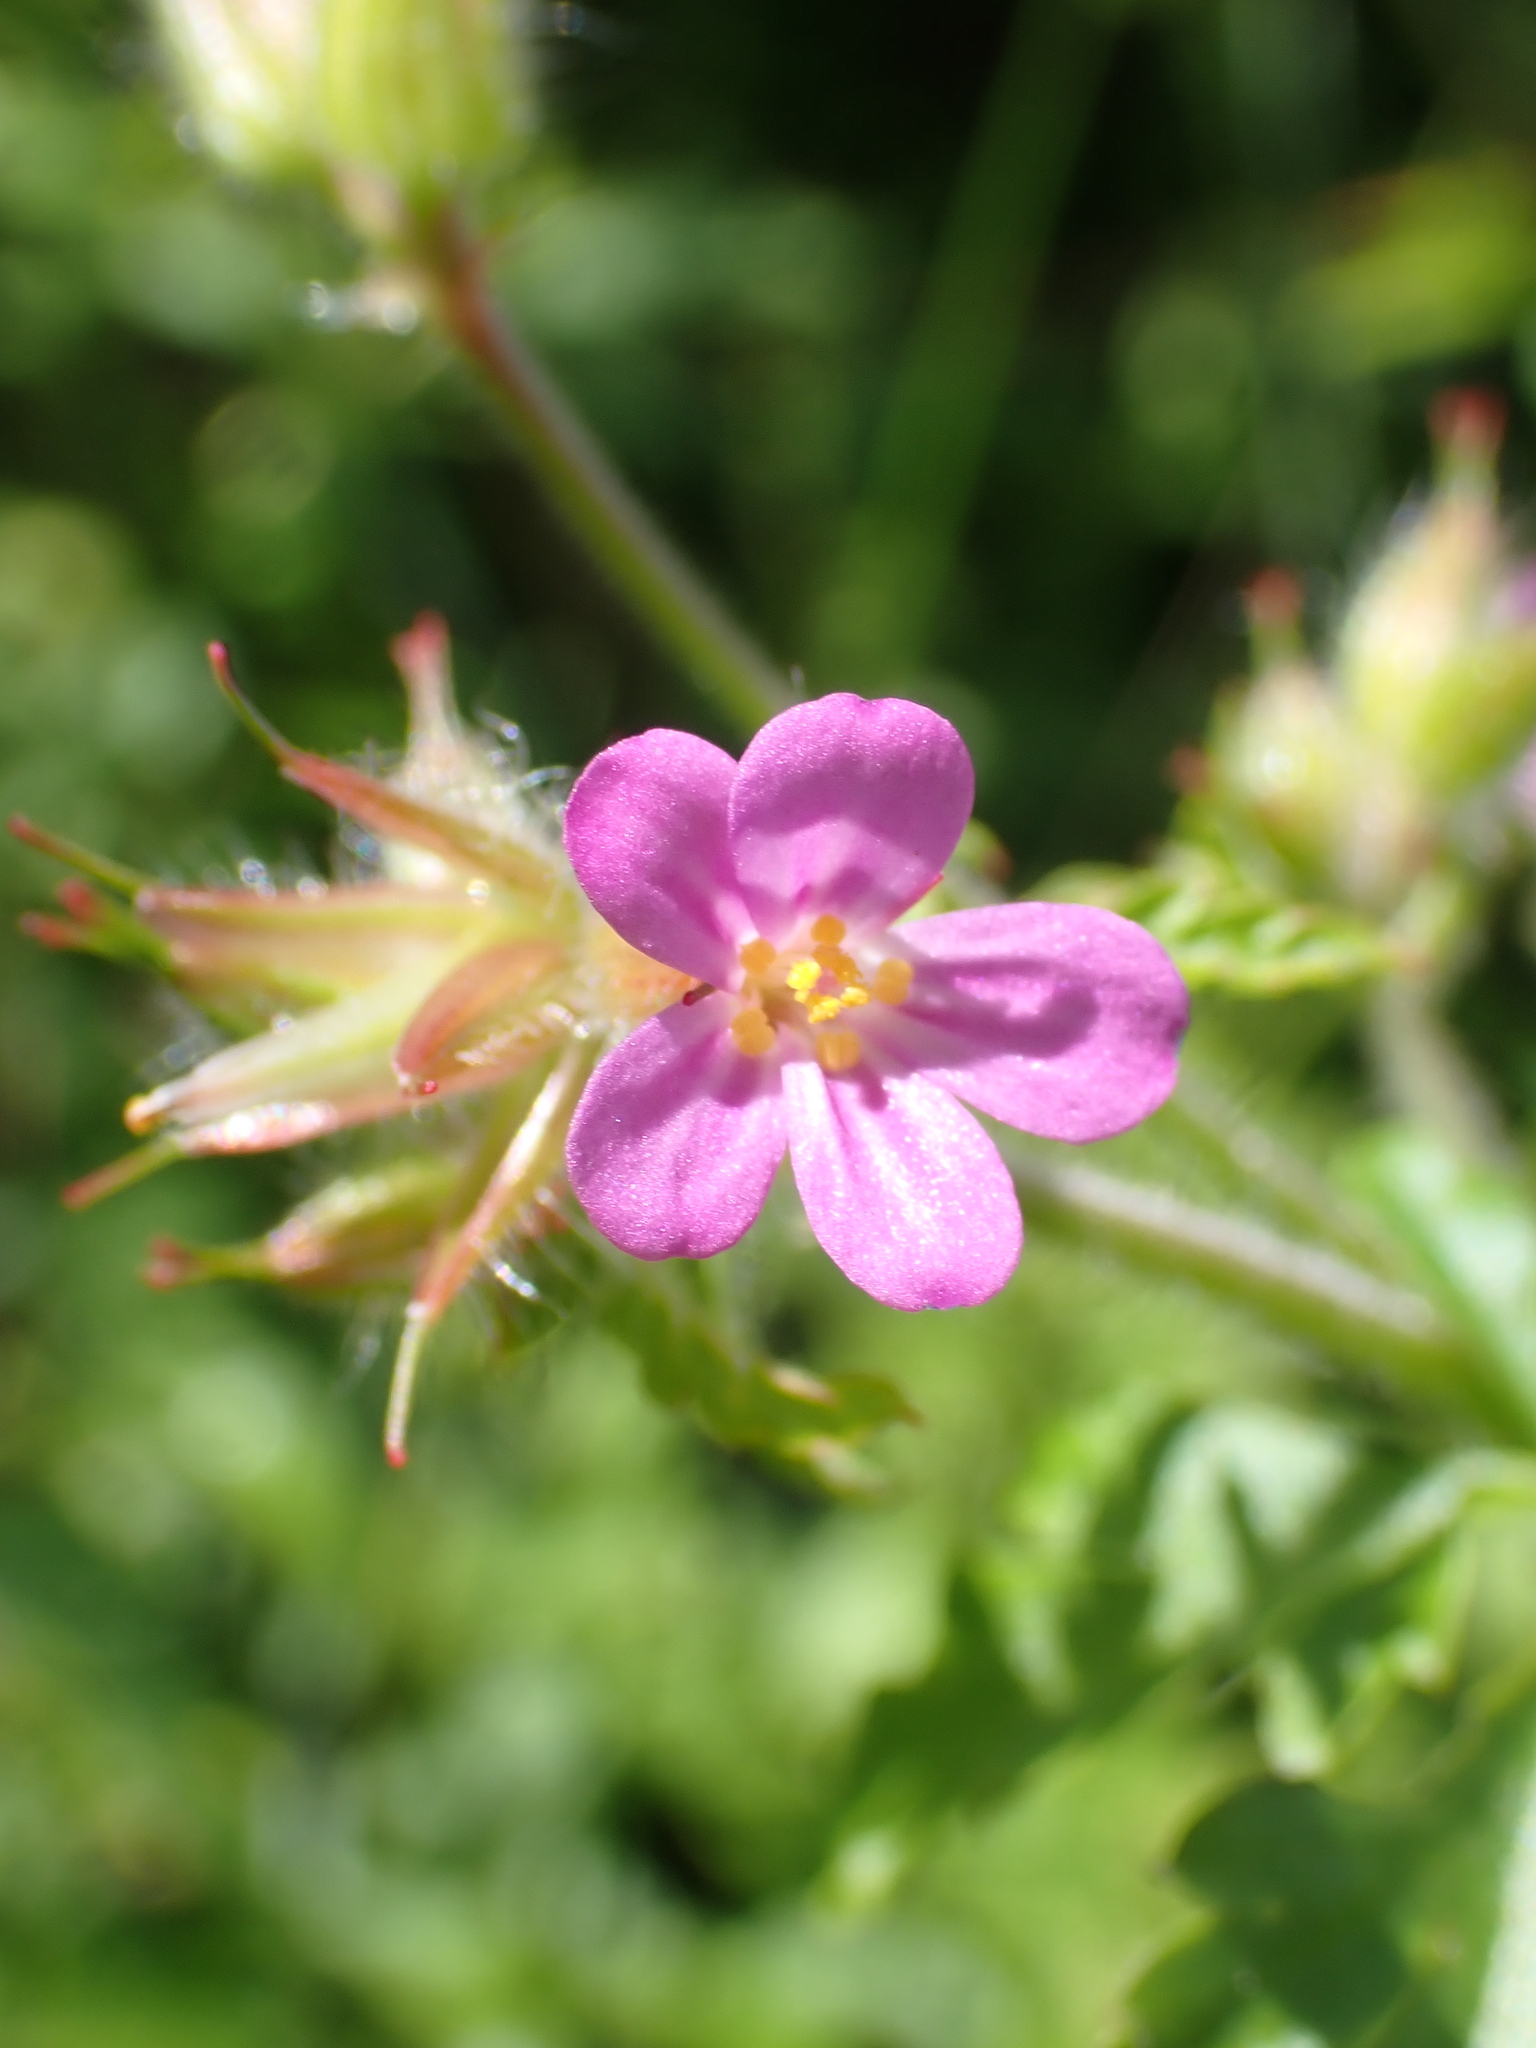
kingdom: Plantae
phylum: Tracheophyta
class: Magnoliopsida
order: Geraniales
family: Geraniaceae
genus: Geranium
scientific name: Geranium purpureum
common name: Little-robin
